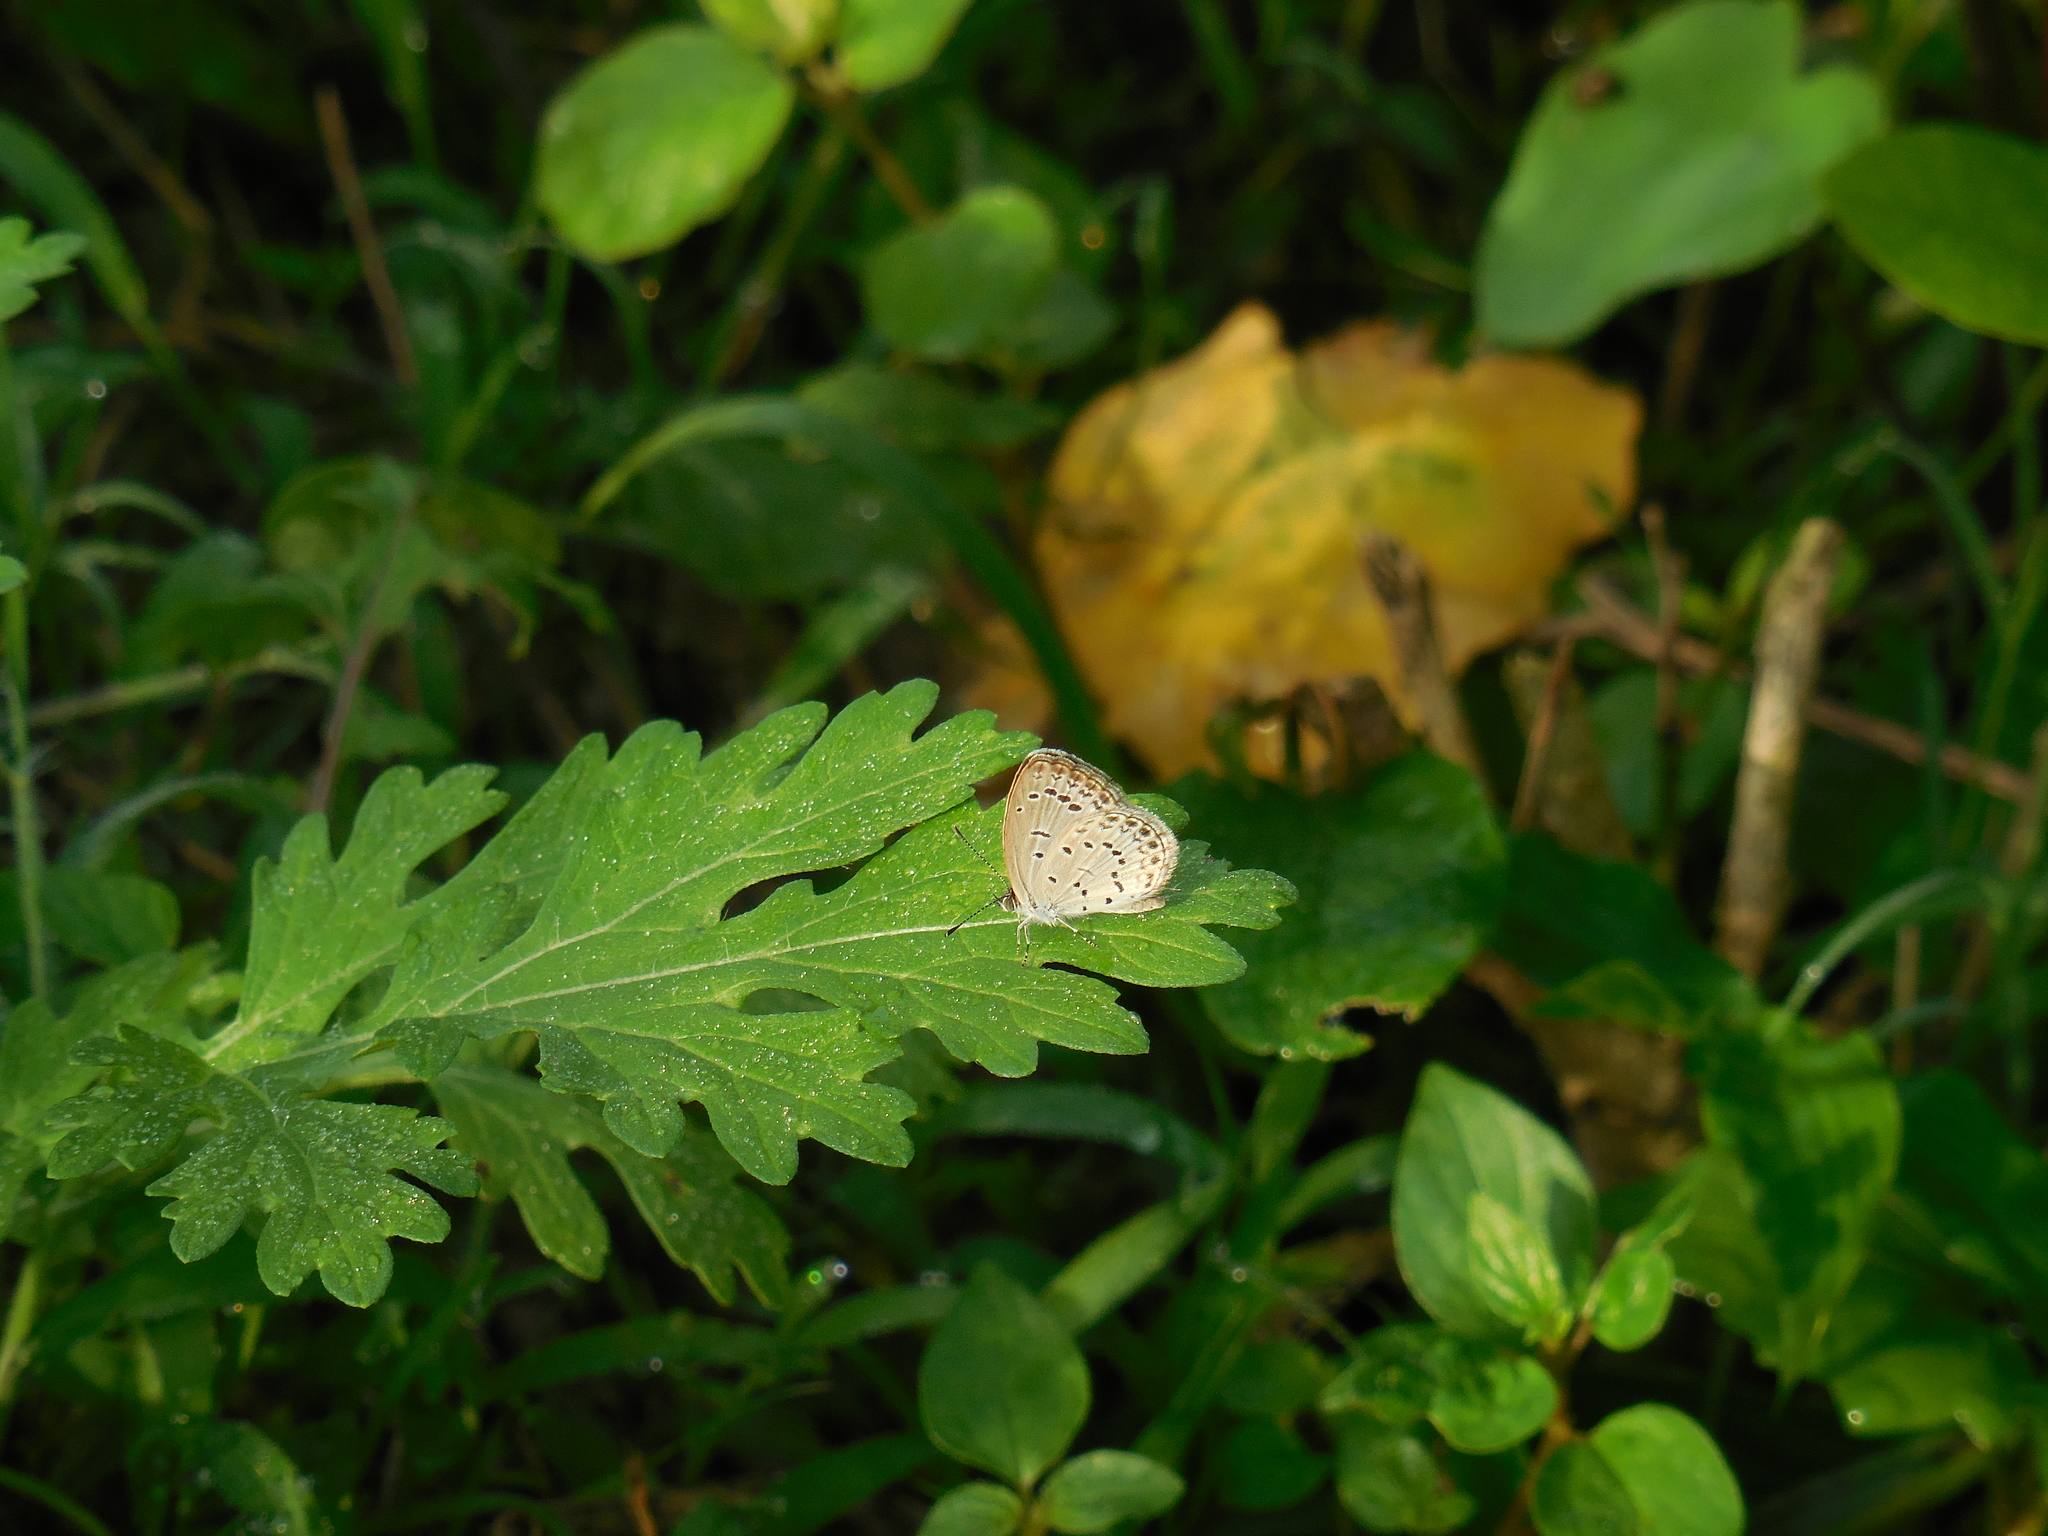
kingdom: Animalia
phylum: Arthropoda
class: Insecta
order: Lepidoptera
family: Lycaenidae
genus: Pseudozizeeria
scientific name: Pseudozizeeria maha
